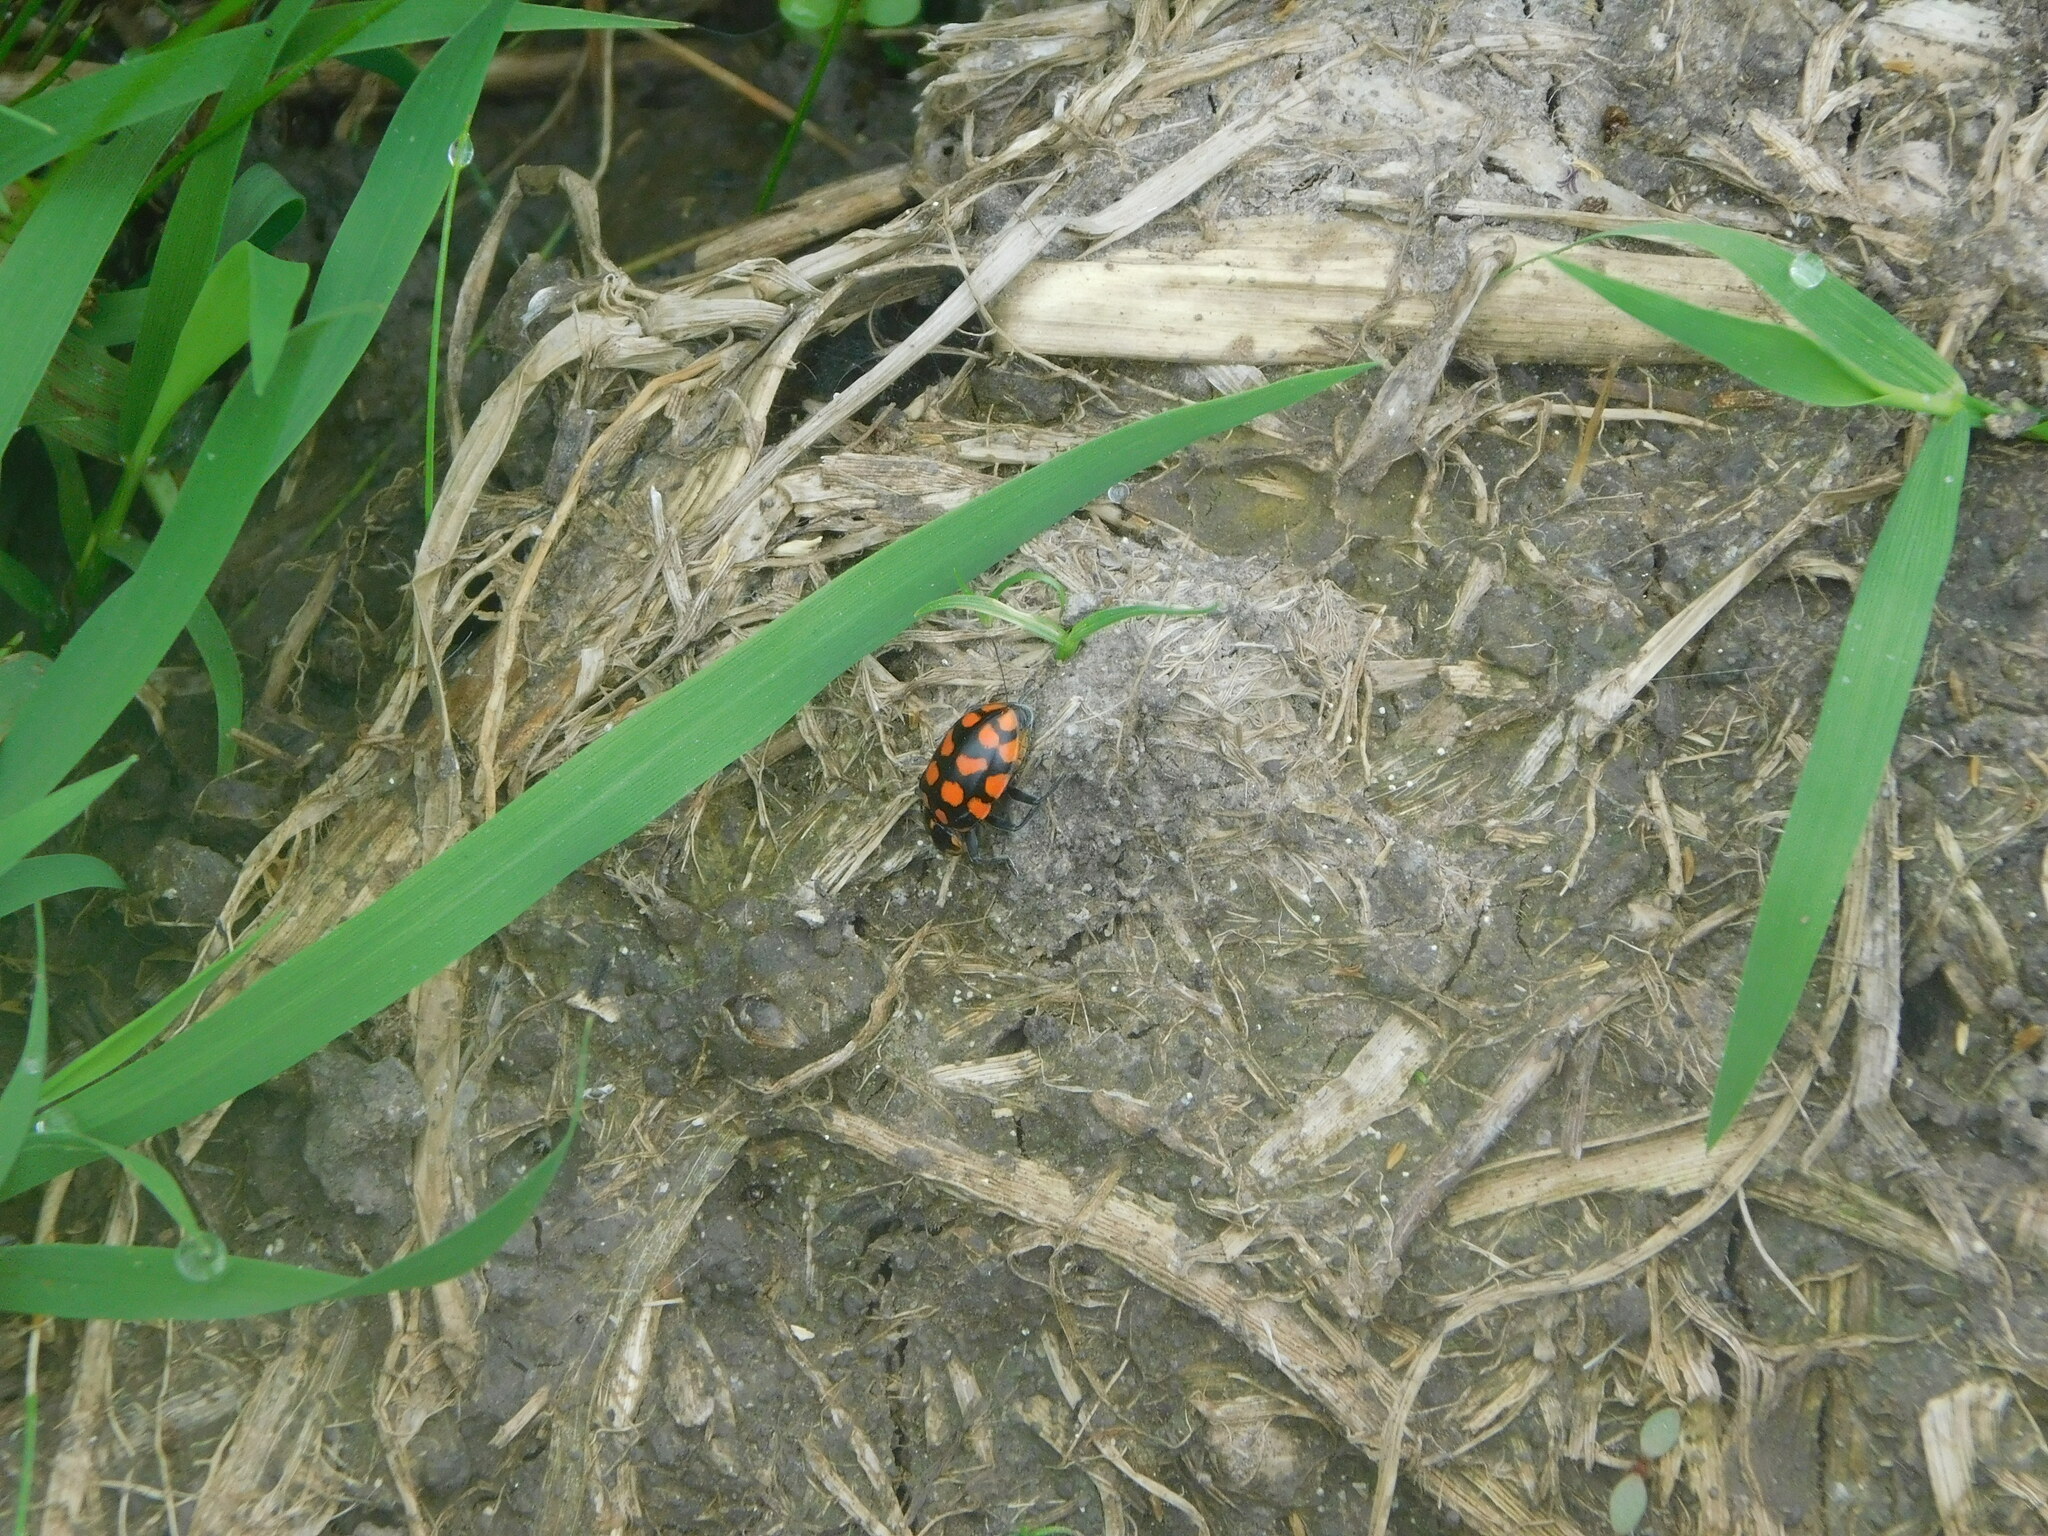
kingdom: Animalia
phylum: Arthropoda
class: Insecta
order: Coleoptera
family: Coccinellidae
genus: Coleomegilla
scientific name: Coleomegilla
